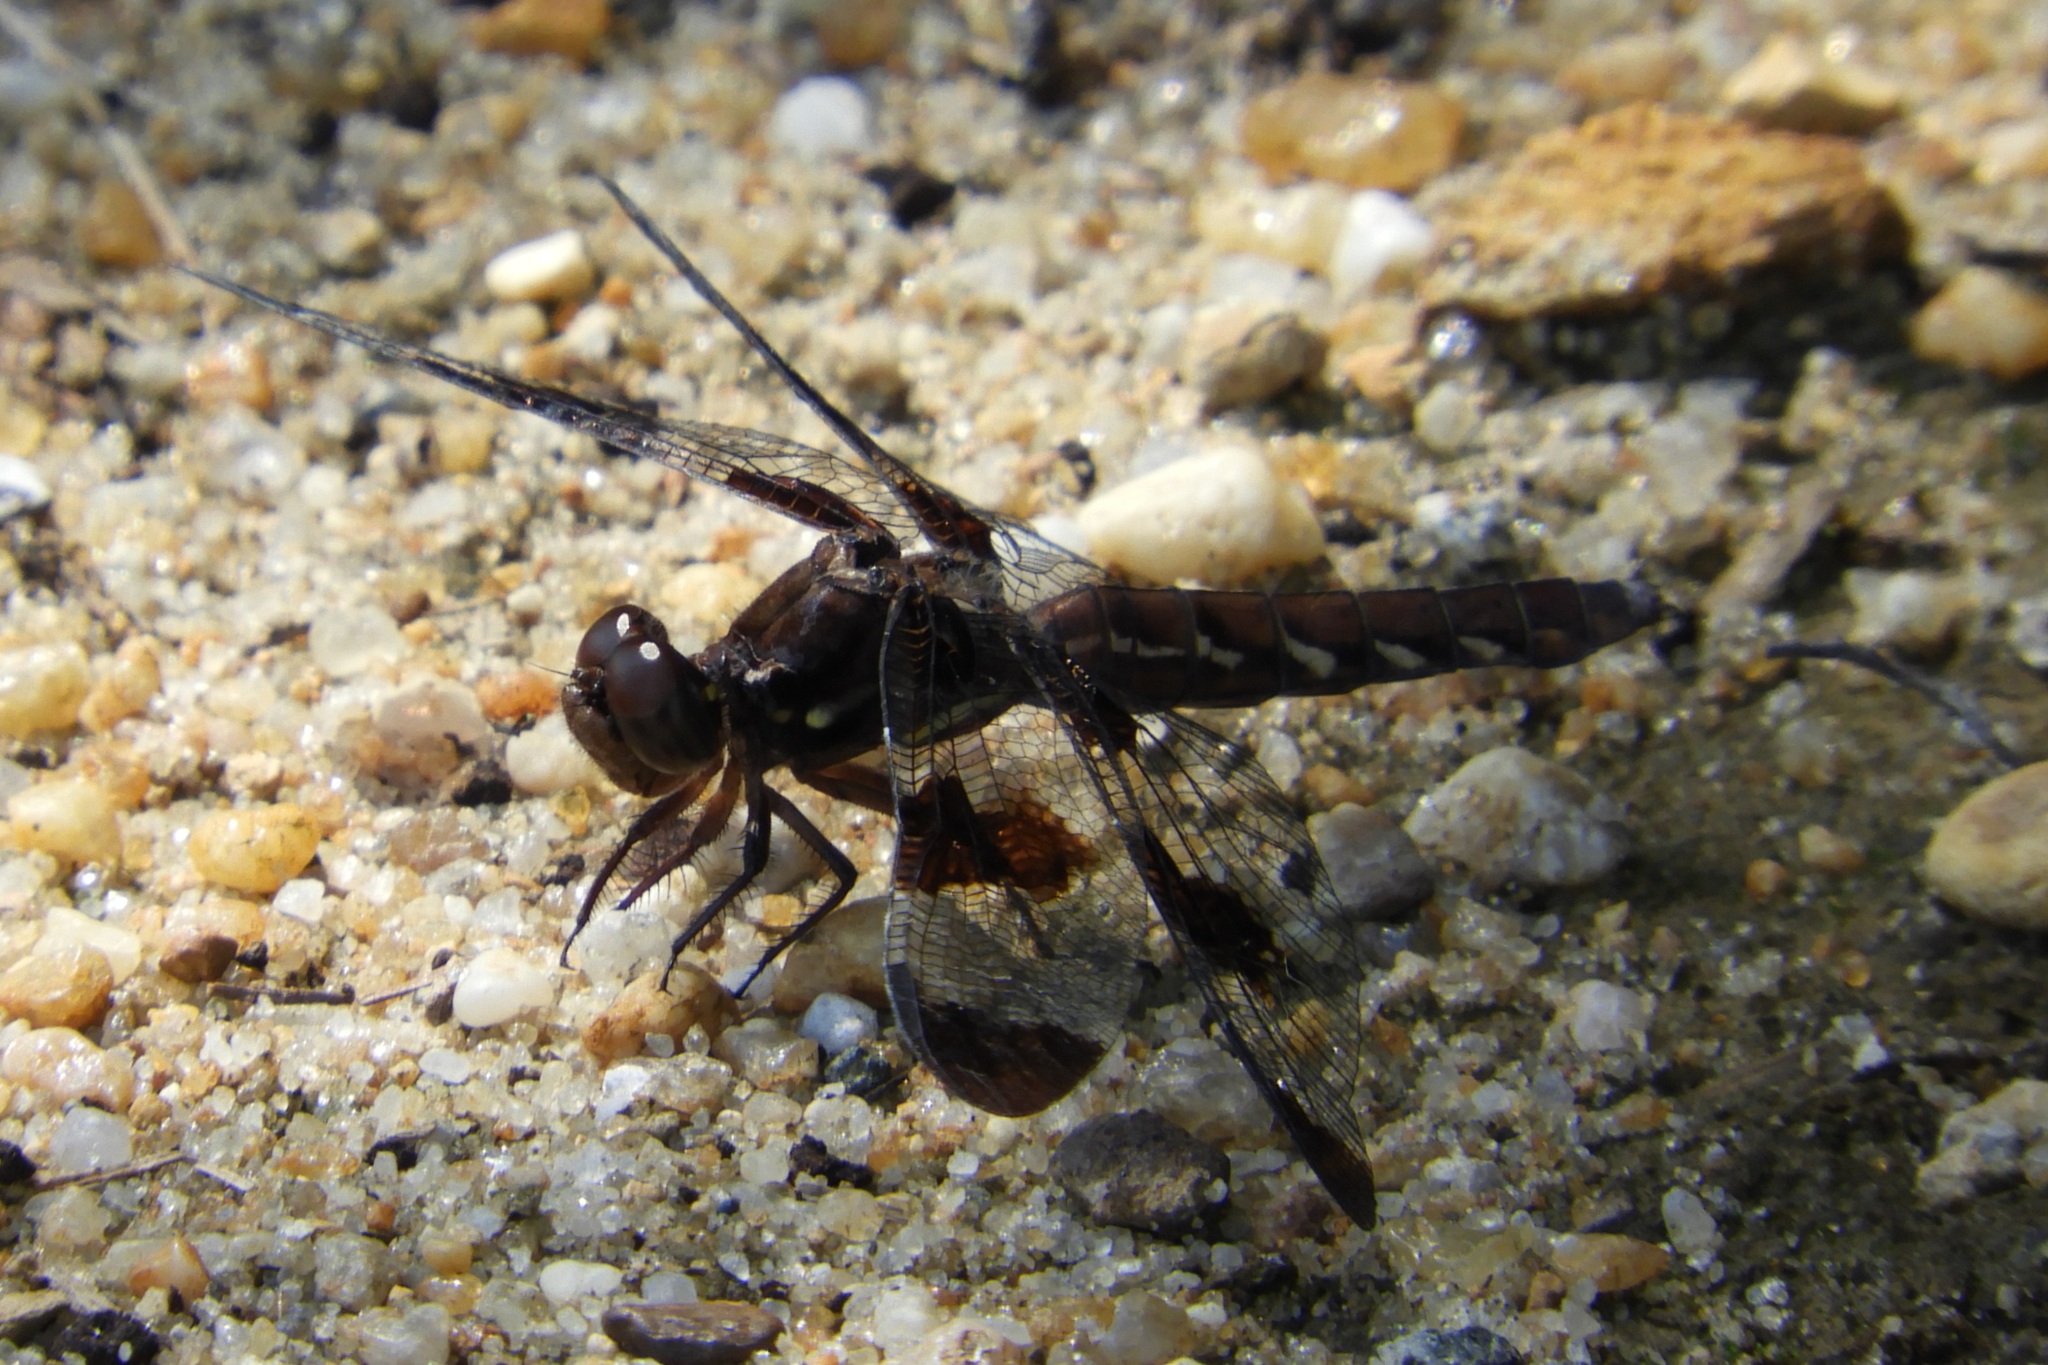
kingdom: Animalia
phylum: Arthropoda
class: Insecta
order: Odonata
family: Libellulidae
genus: Plathemis
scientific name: Plathemis lydia
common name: Common whitetail
